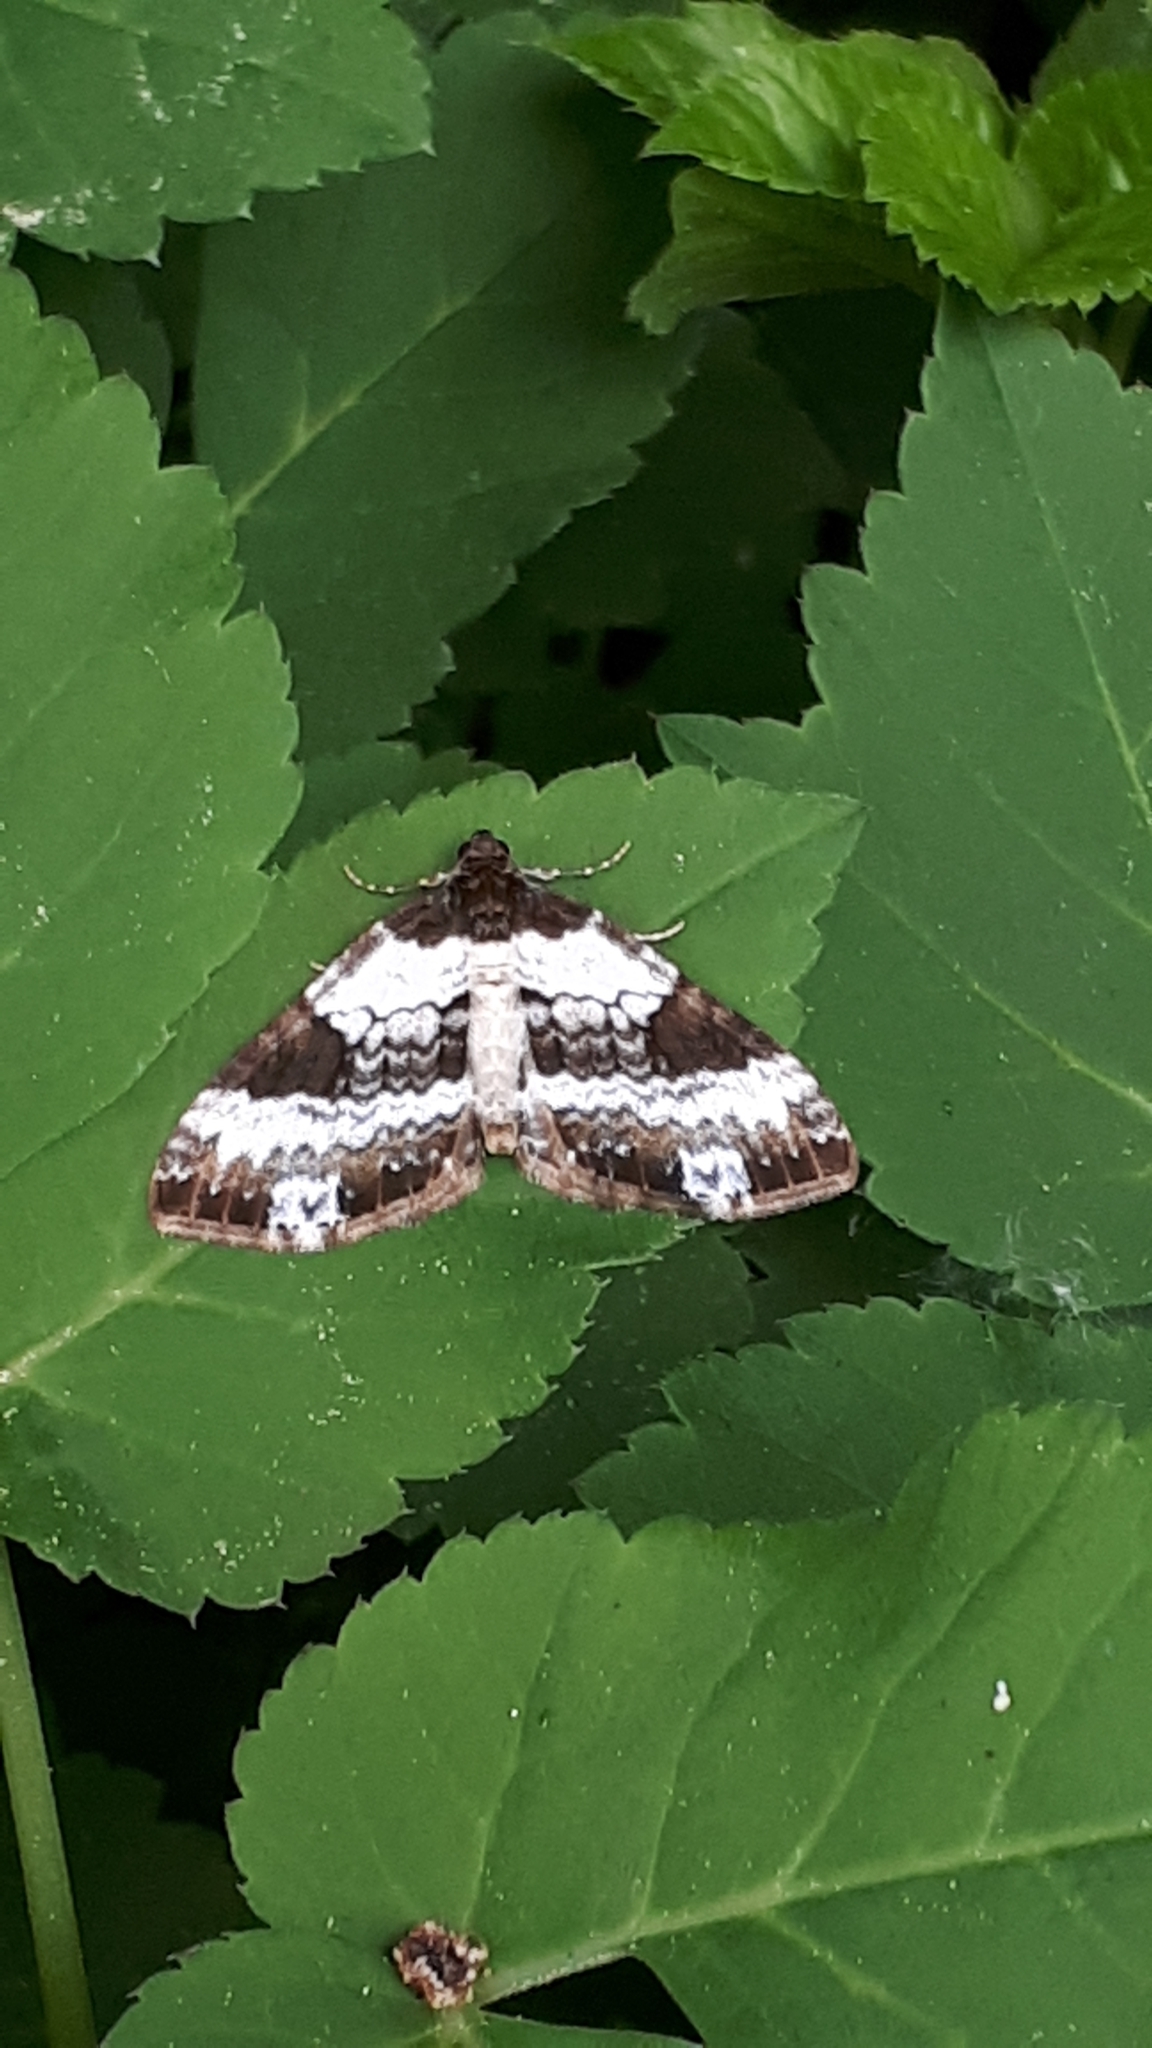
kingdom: Animalia
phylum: Arthropoda
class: Insecta
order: Lepidoptera
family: Geometridae
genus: Melanthia
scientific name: Melanthia procellata
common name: Pretty chalk carpet
